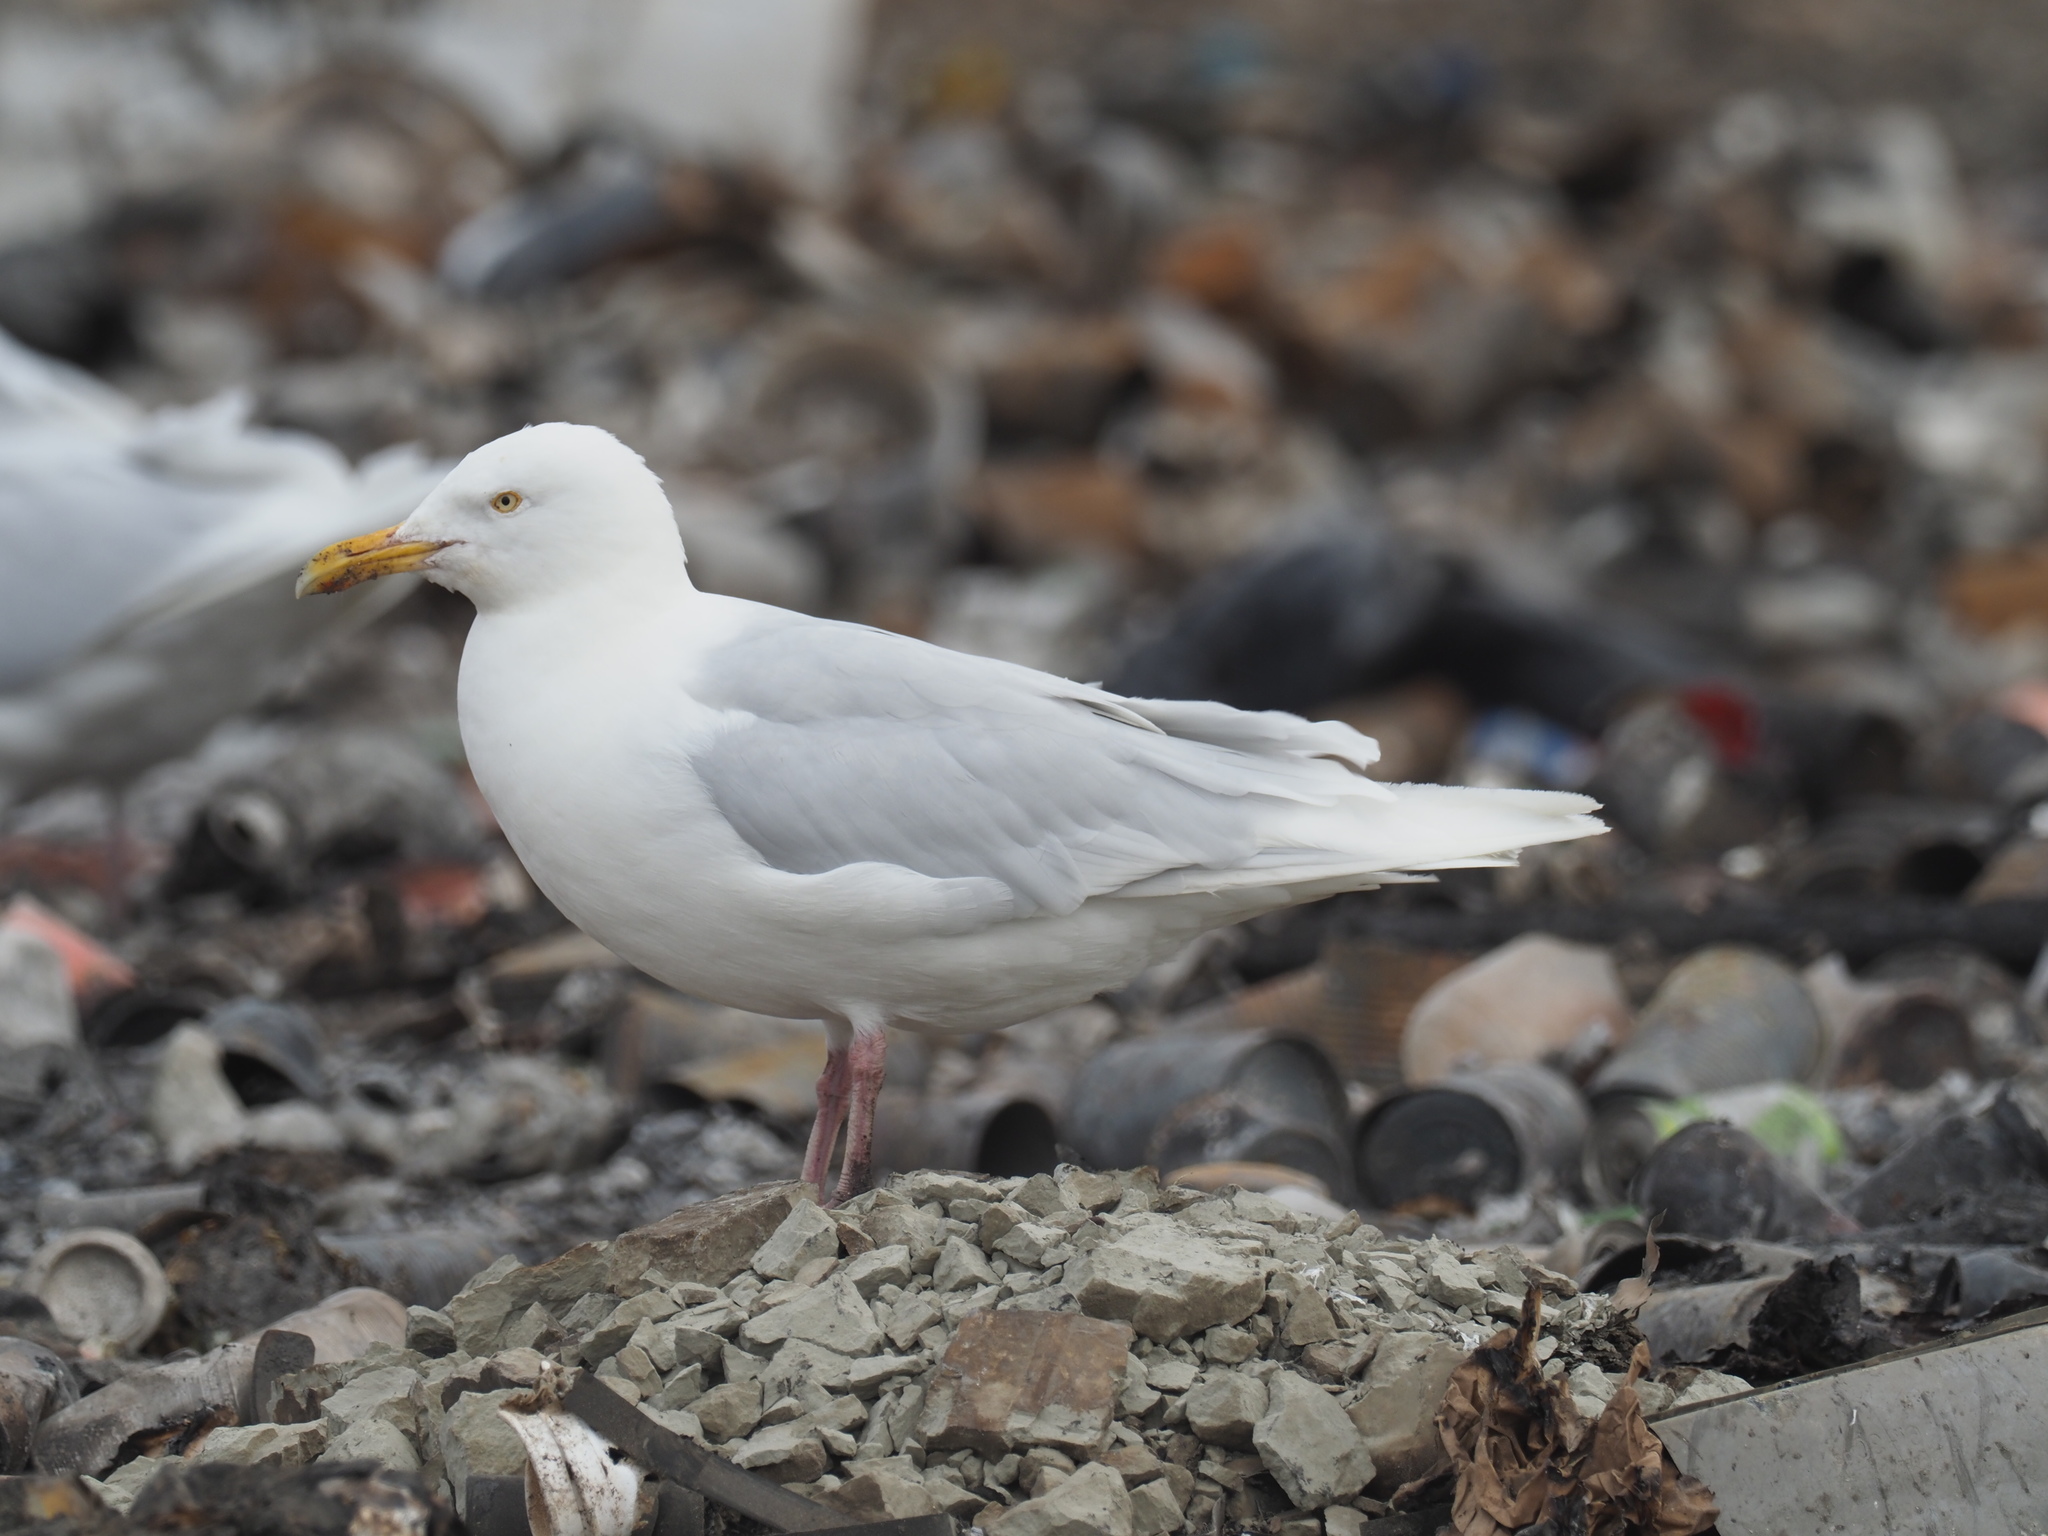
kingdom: Animalia
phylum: Chordata
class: Aves
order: Charadriiformes
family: Laridae
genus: Larus
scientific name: Larus hyperboreus
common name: Glaucous gull
